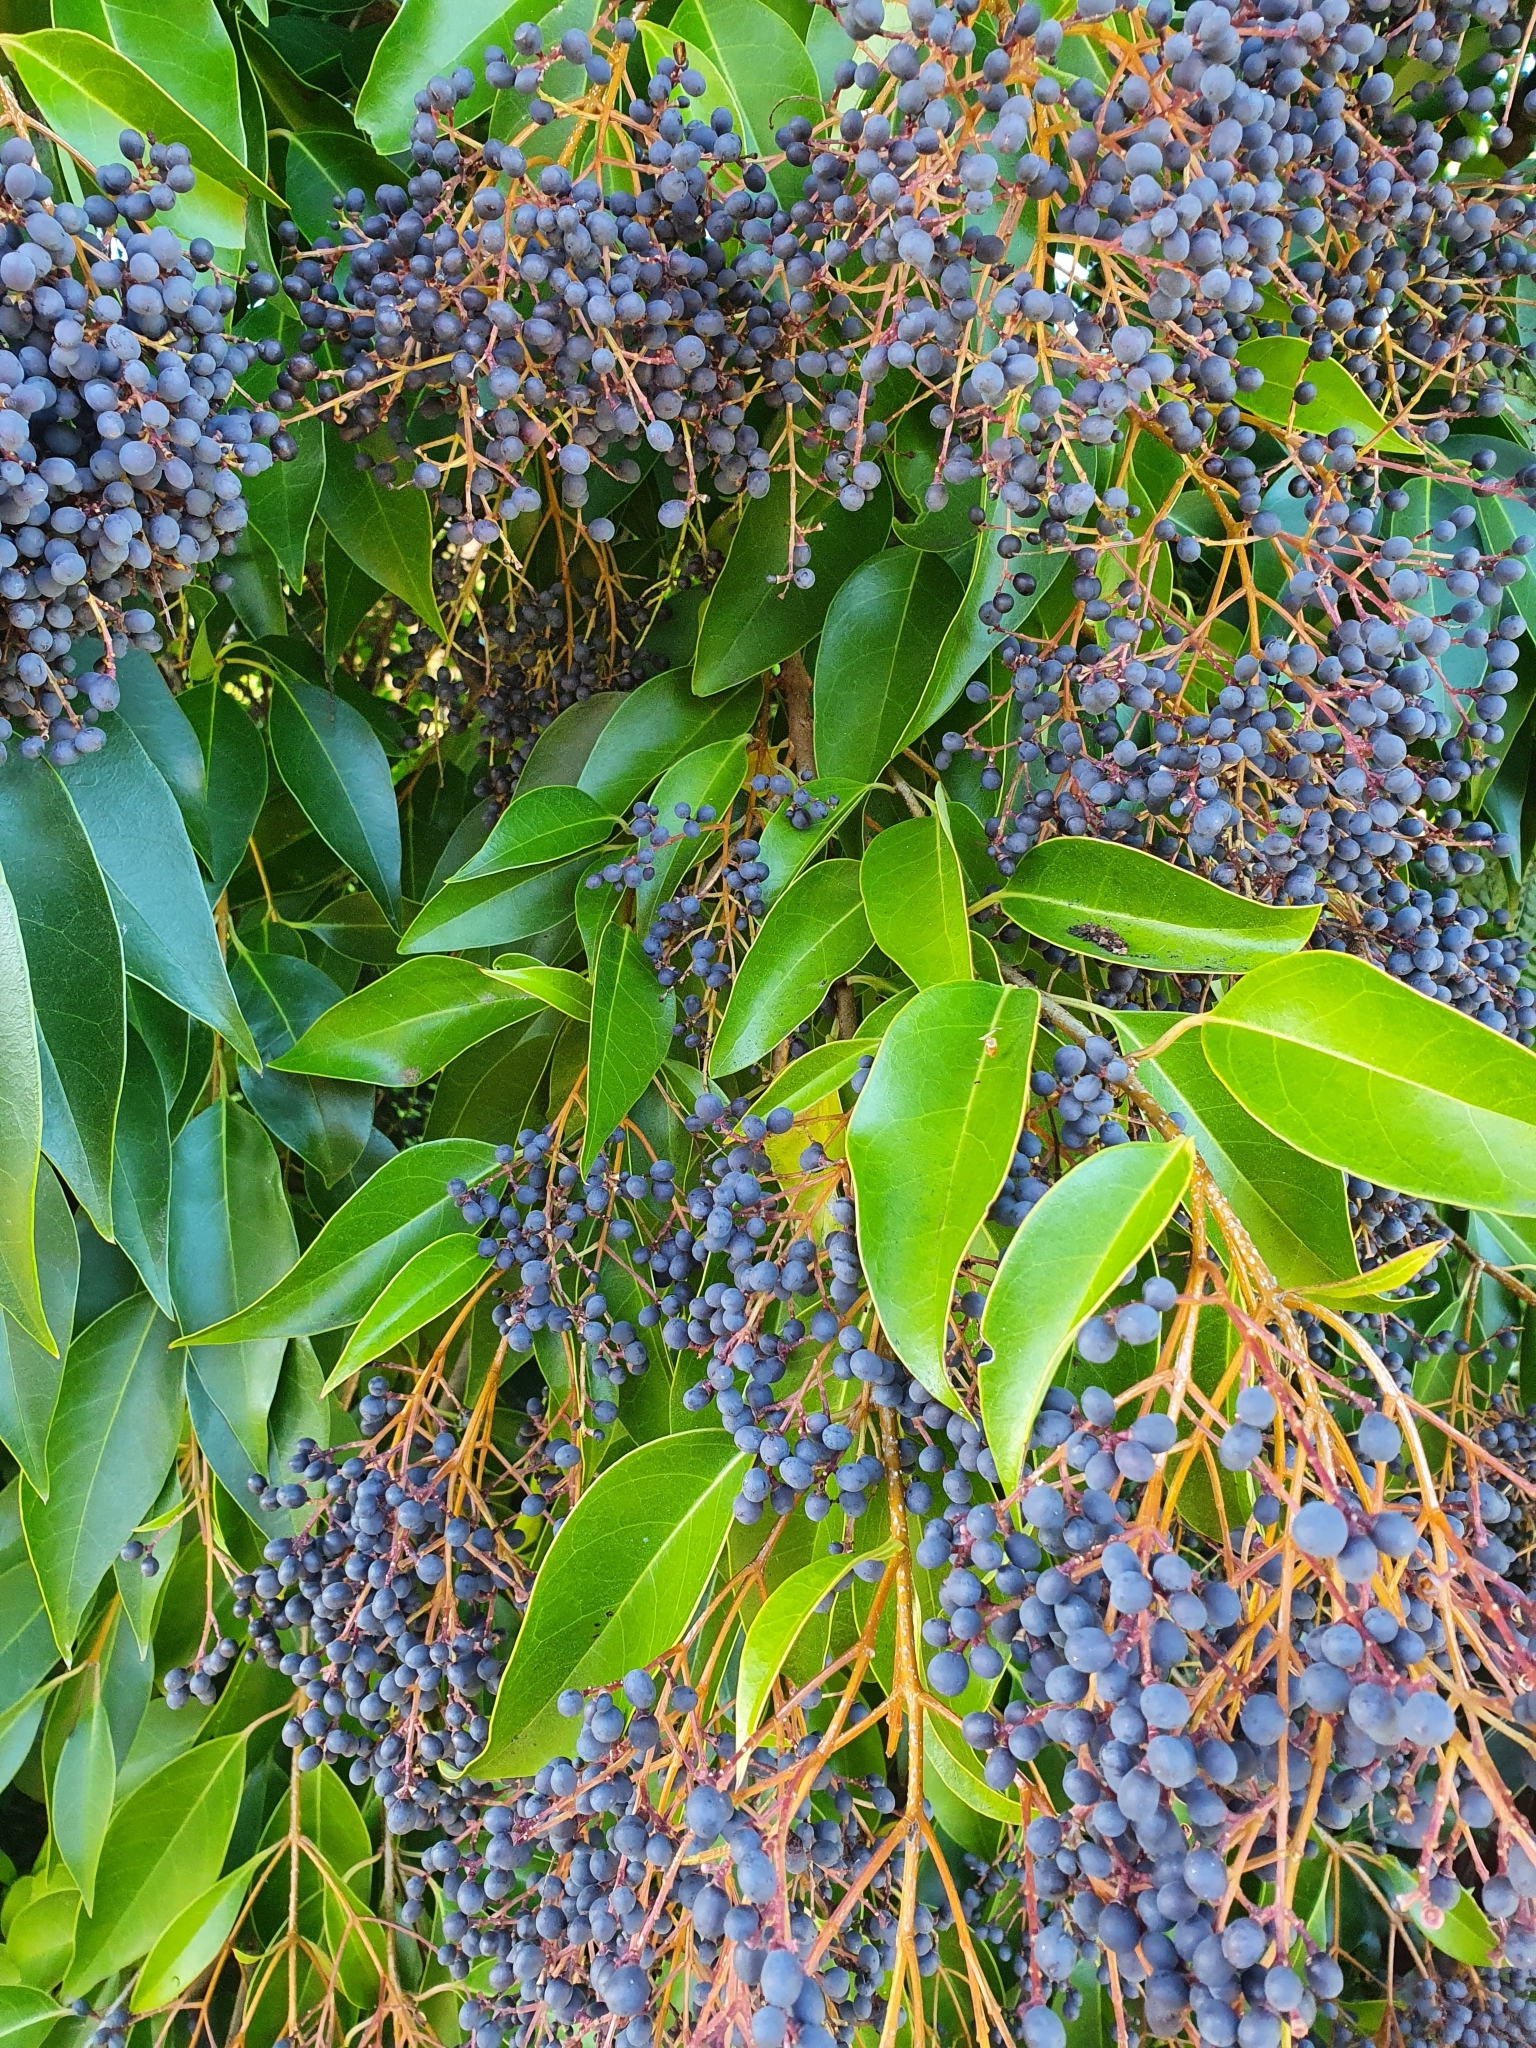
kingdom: Plantae
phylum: Tracheophyta
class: Magnoliopsida
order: Lamiales
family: Oleaceae
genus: Ligustrum
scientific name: Ligustrum lucidum
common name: Glossy privet
